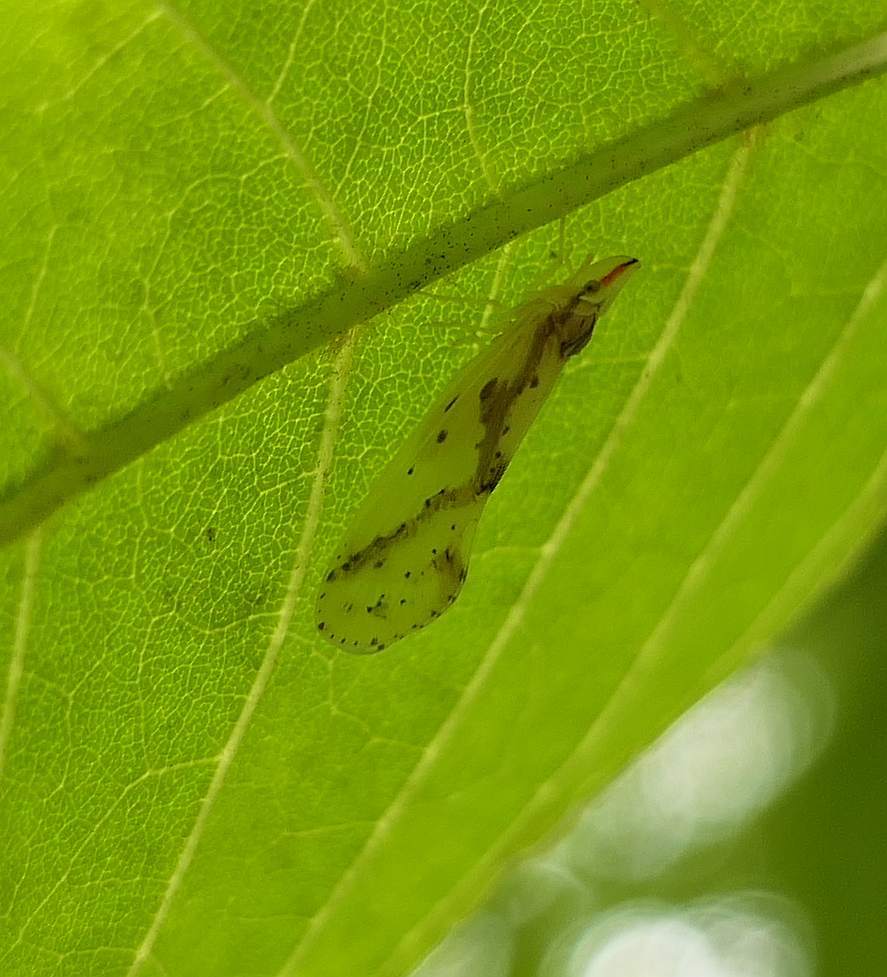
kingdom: Animalia
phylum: Arthropoda
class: Insecta
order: Hemiptera
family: Derbidae
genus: Otiocerus
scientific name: Otiocerus wolfii
